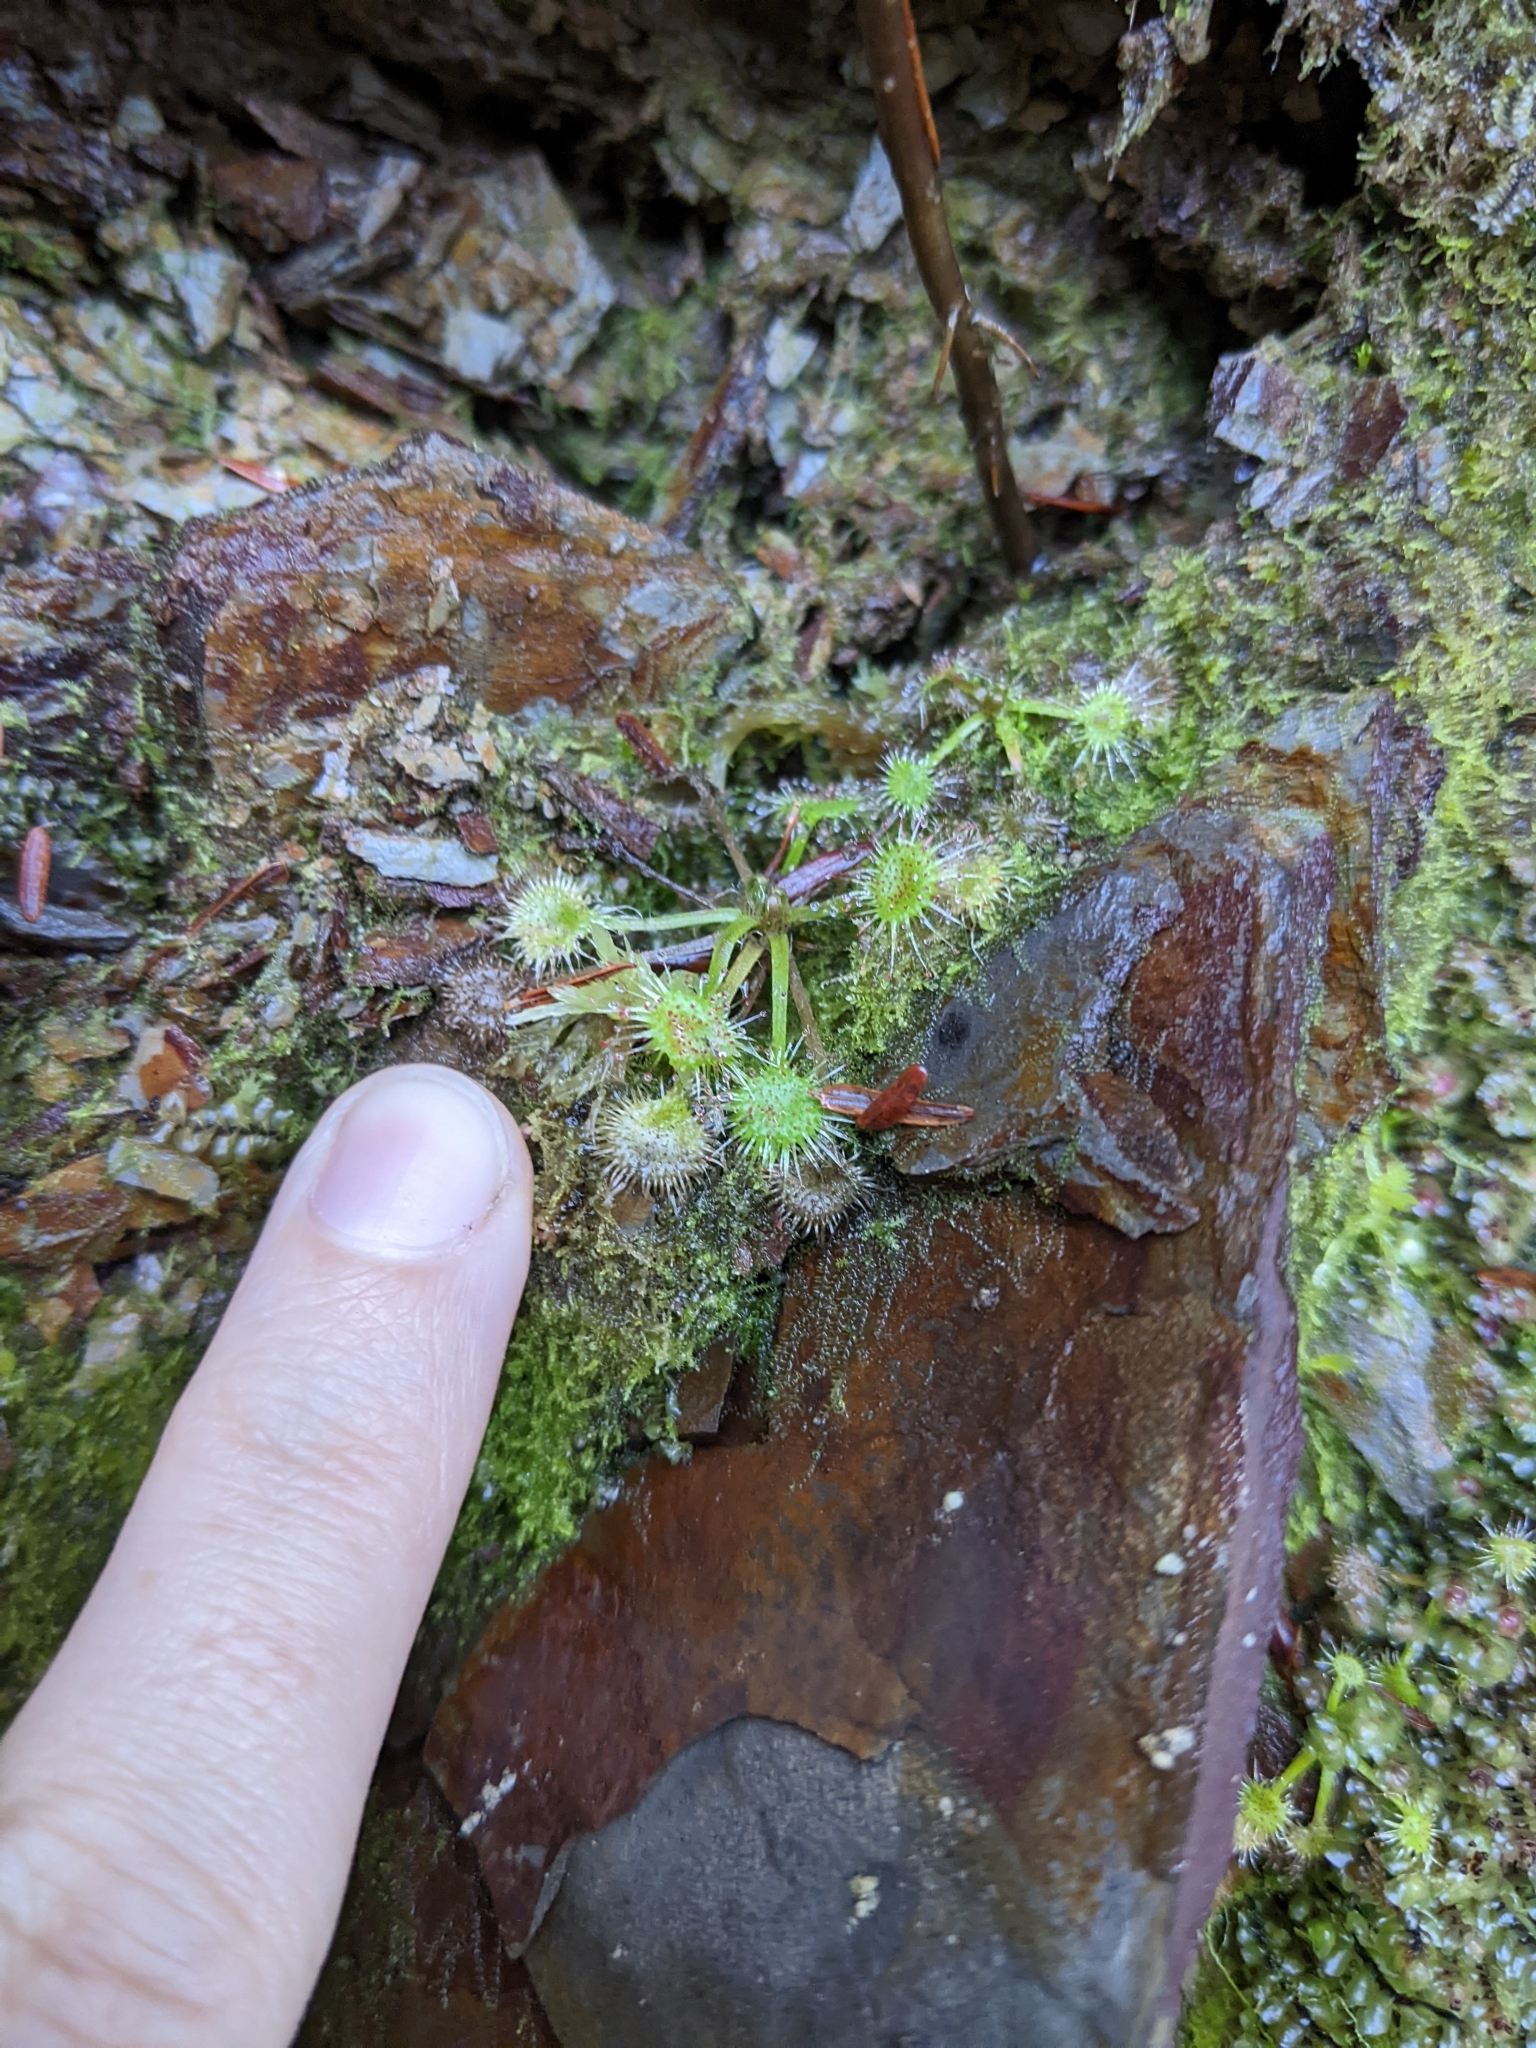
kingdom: Plantae
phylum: Tracheophyta
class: Magnoliopsida
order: Caryophyllales
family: Droseraceae
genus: Drosera
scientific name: Drosera rotundifolia
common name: Round-leaved sundew
